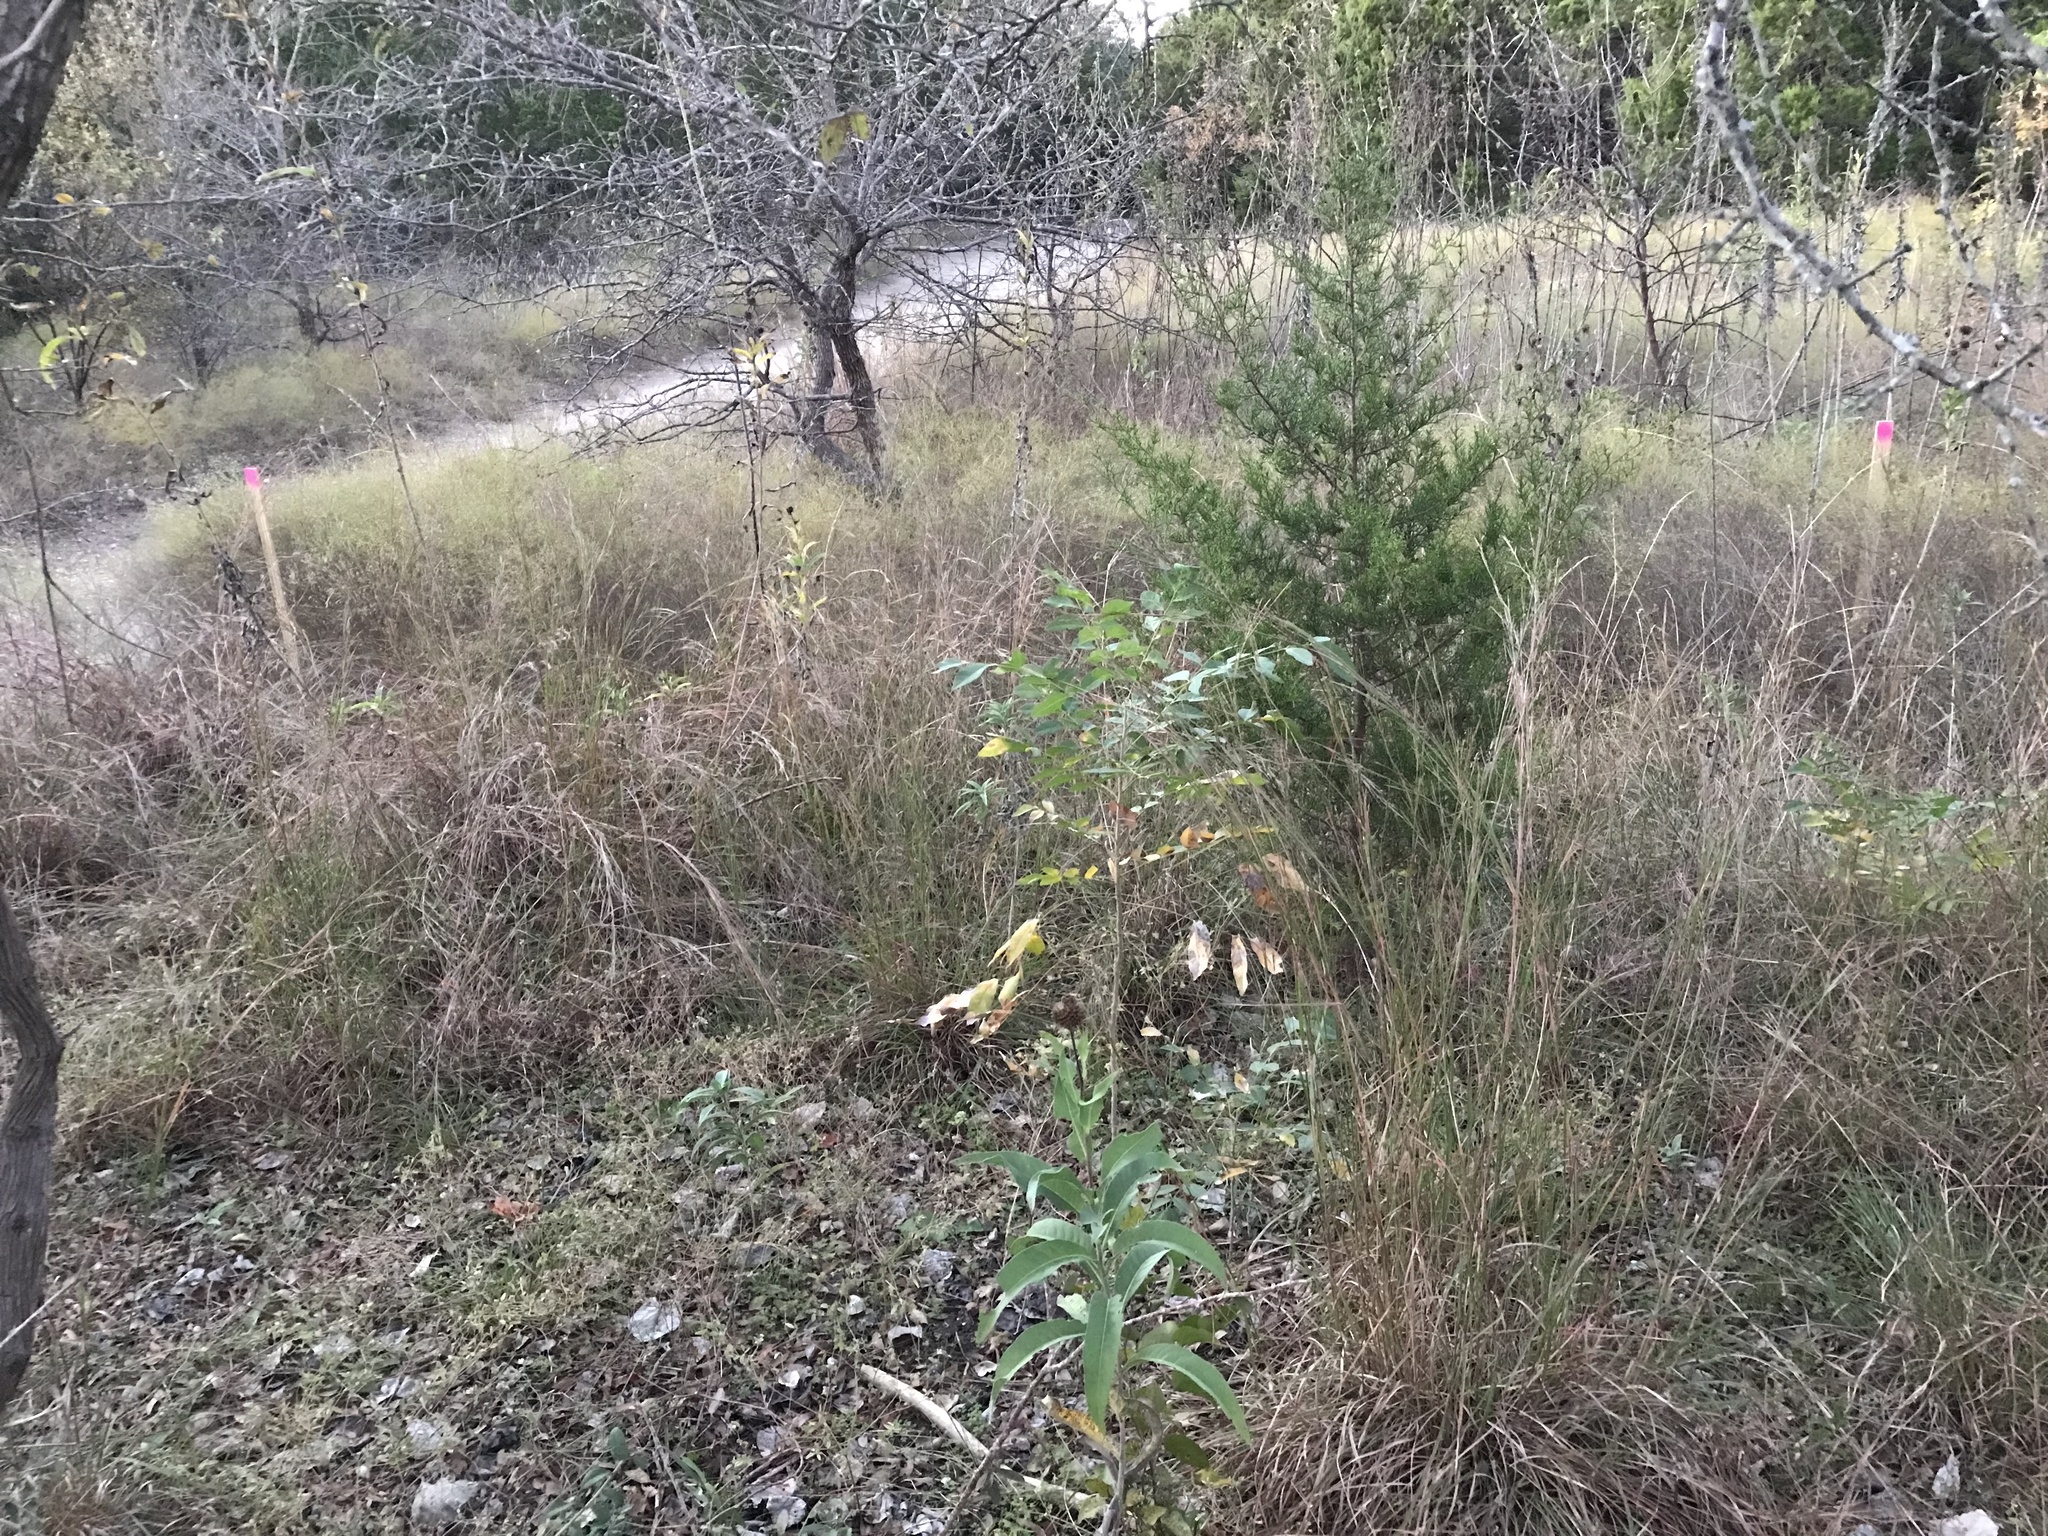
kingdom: Plantae
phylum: Tracheophyta
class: Magnoliopsida
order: Asterales
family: Asteraceae
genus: Helianthus
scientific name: Helianthus maximiliani
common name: Maximilian's sunflower
